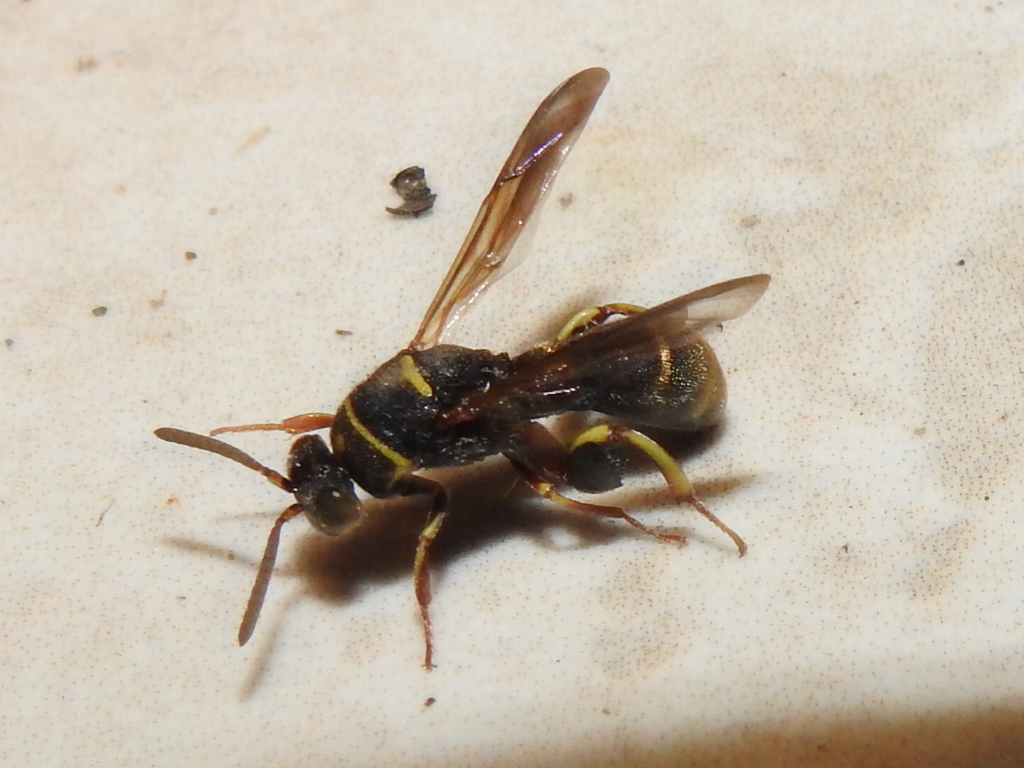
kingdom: Animalia
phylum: Arthropoda
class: Insecta
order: Hymenoptera
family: Leucospidae
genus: Leucospis
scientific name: Leucospis birkmani
